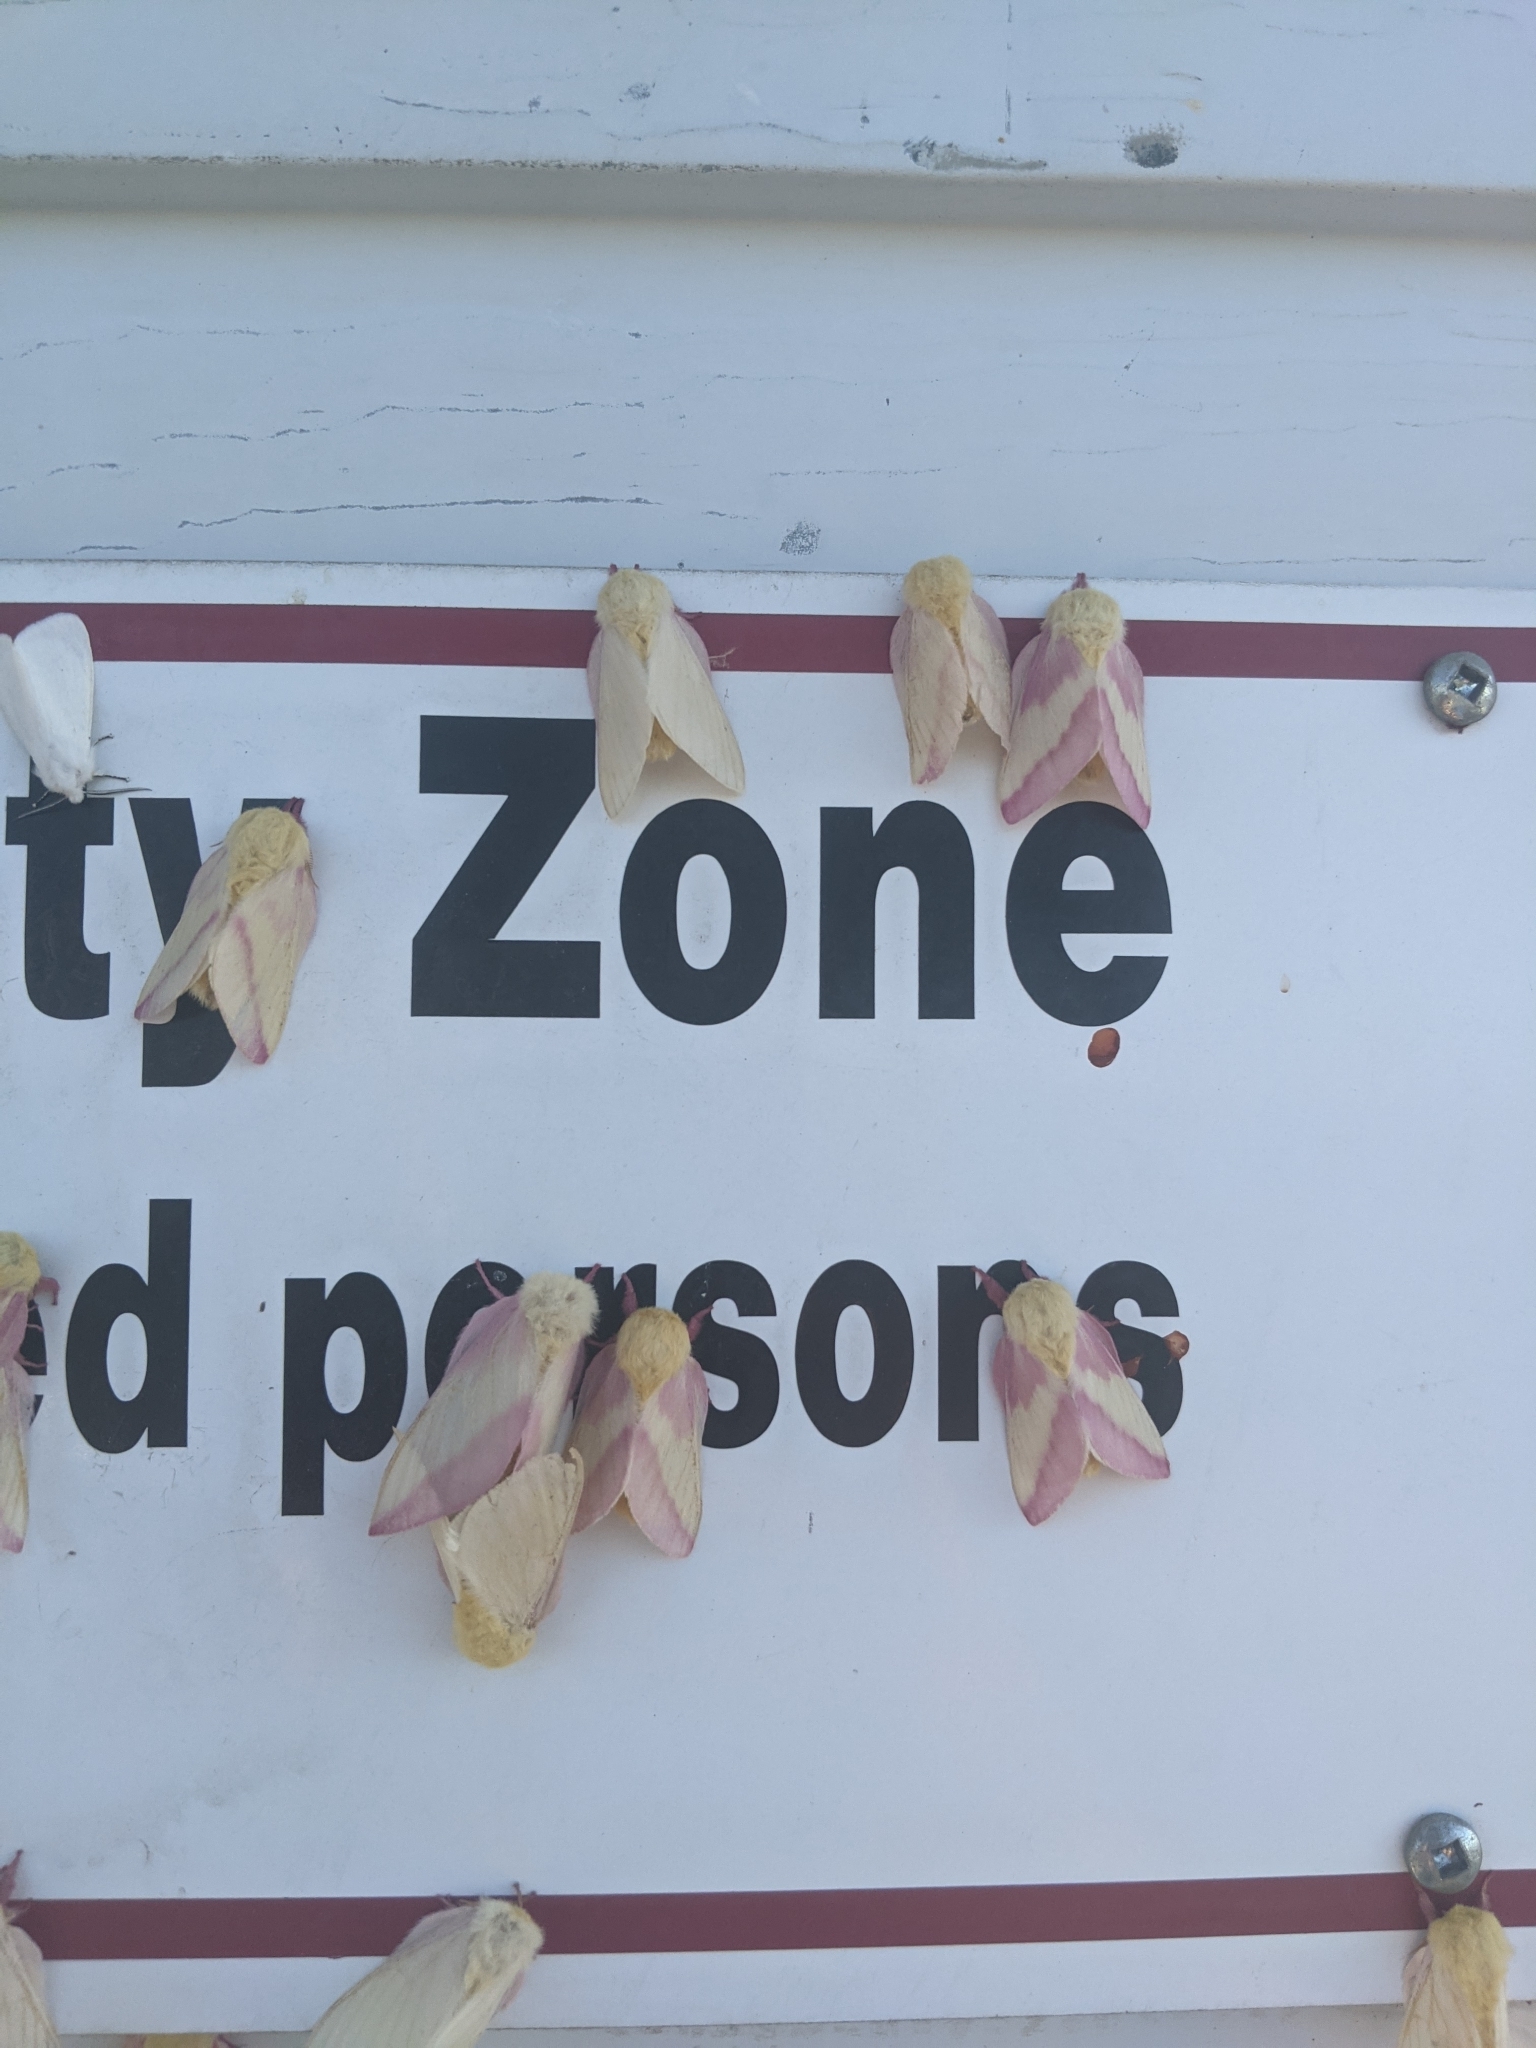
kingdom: Animalia
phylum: Arthropoda
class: Insecta
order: Lepidoptera
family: Saturniidae
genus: Dryocampa
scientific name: Dryocampa rubicunda
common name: Rosy maple moth
